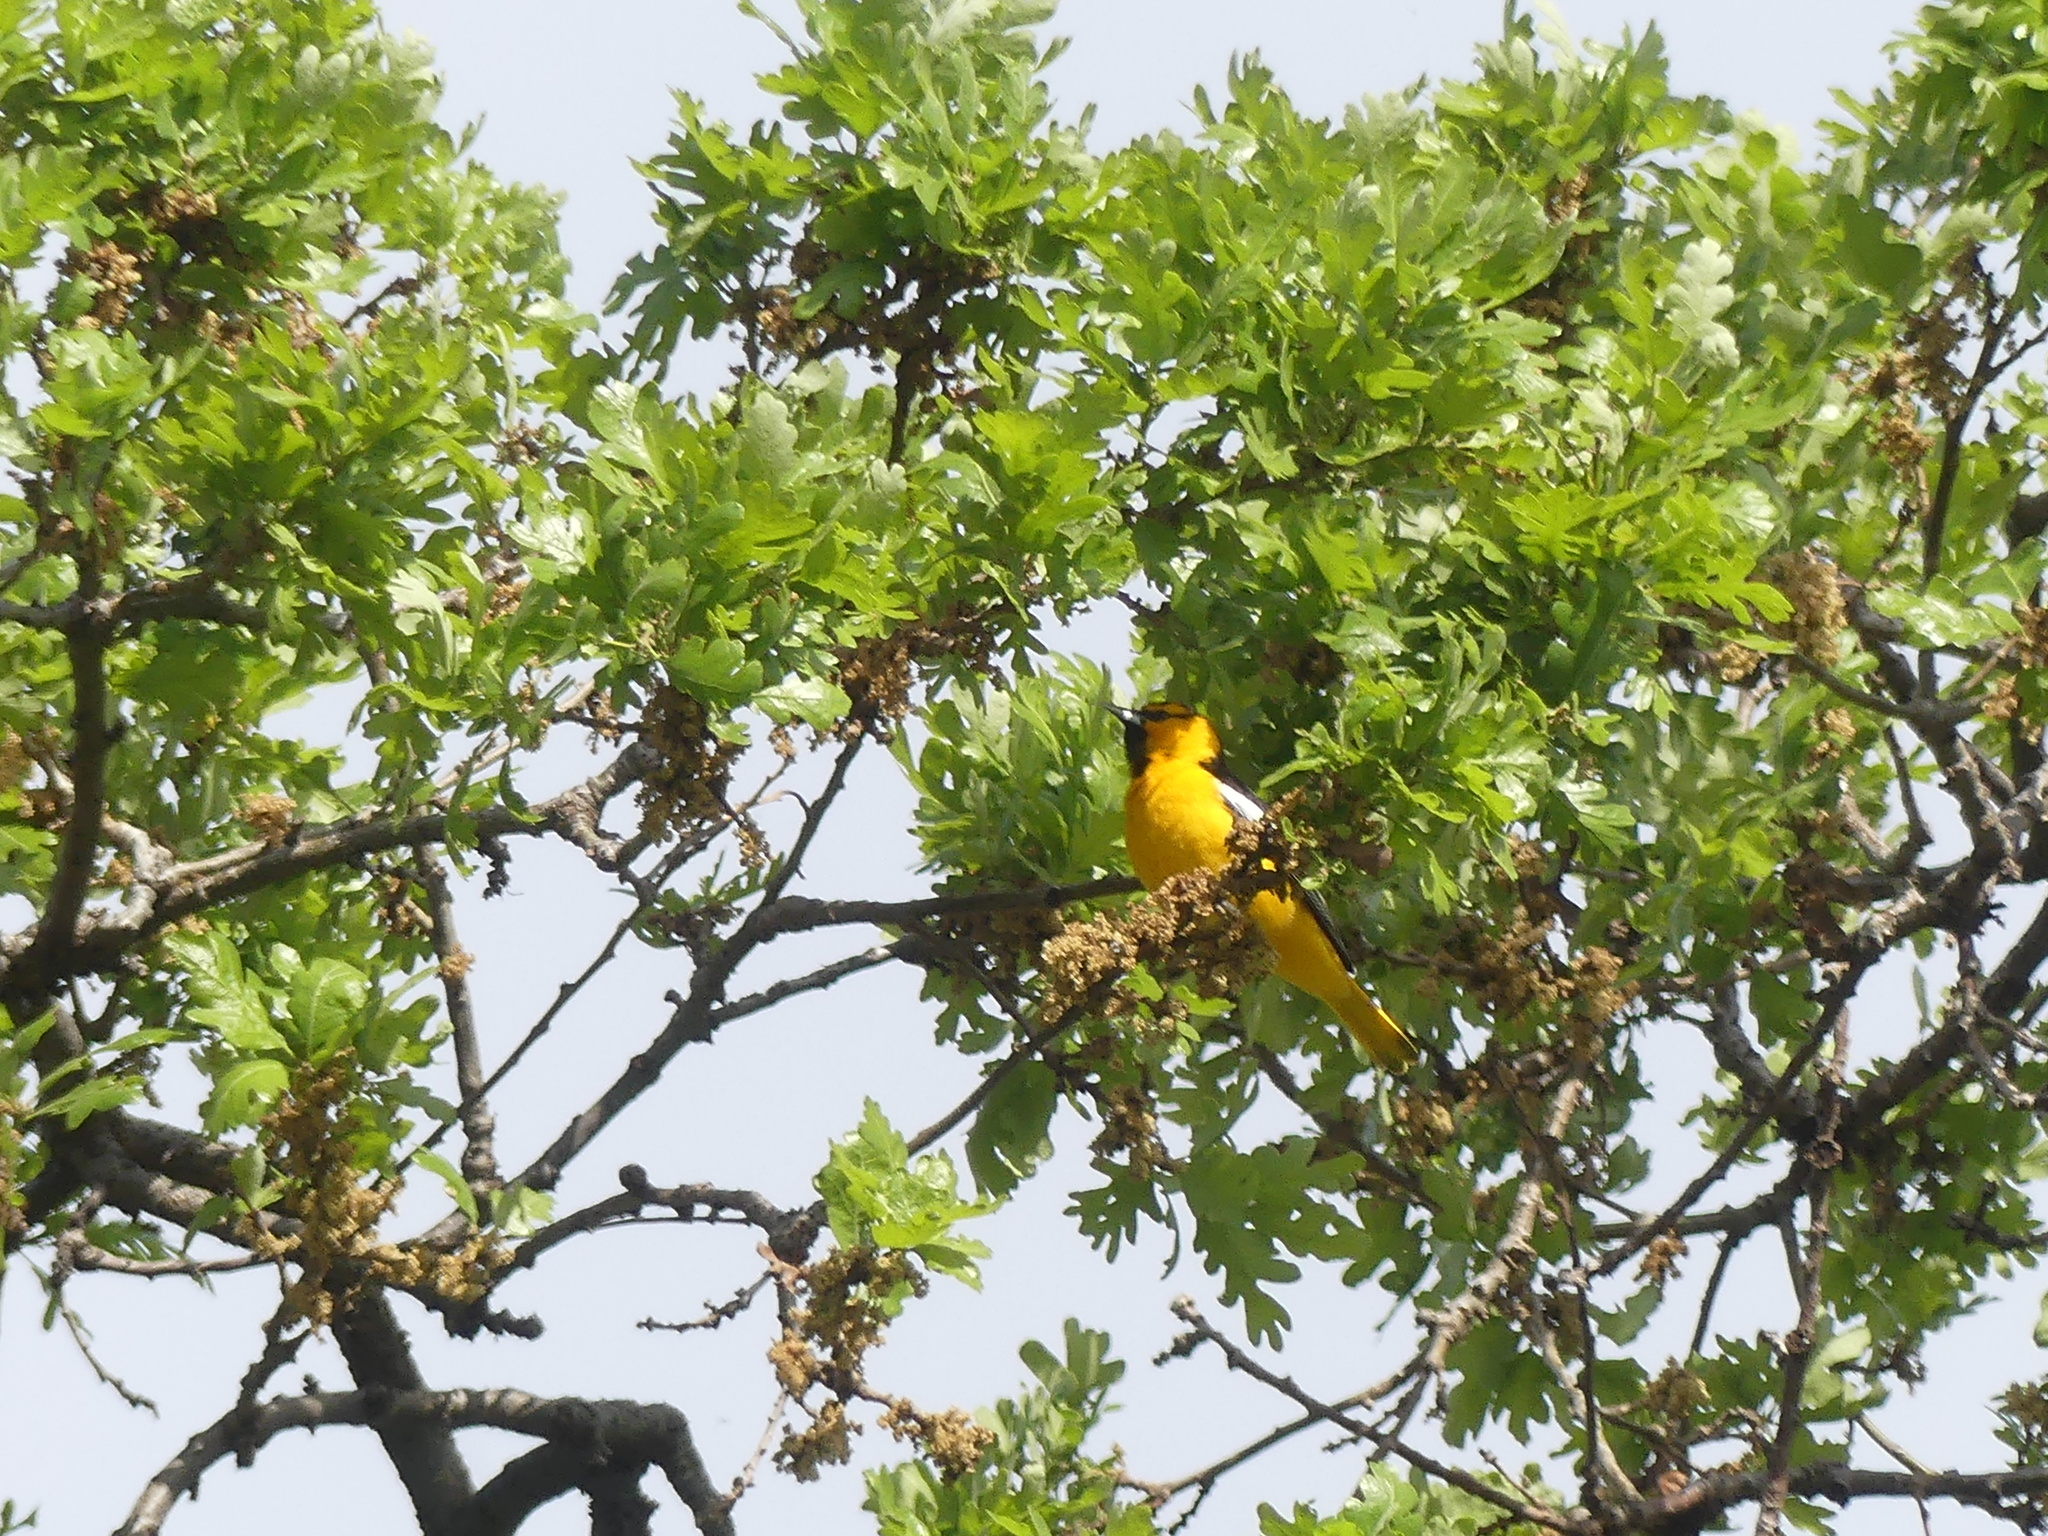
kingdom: Animalia
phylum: Chordata
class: Aves
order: Passeriformes
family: Icteridae
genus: Icterus
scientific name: Icterus bullockii
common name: Bullock's oriole
